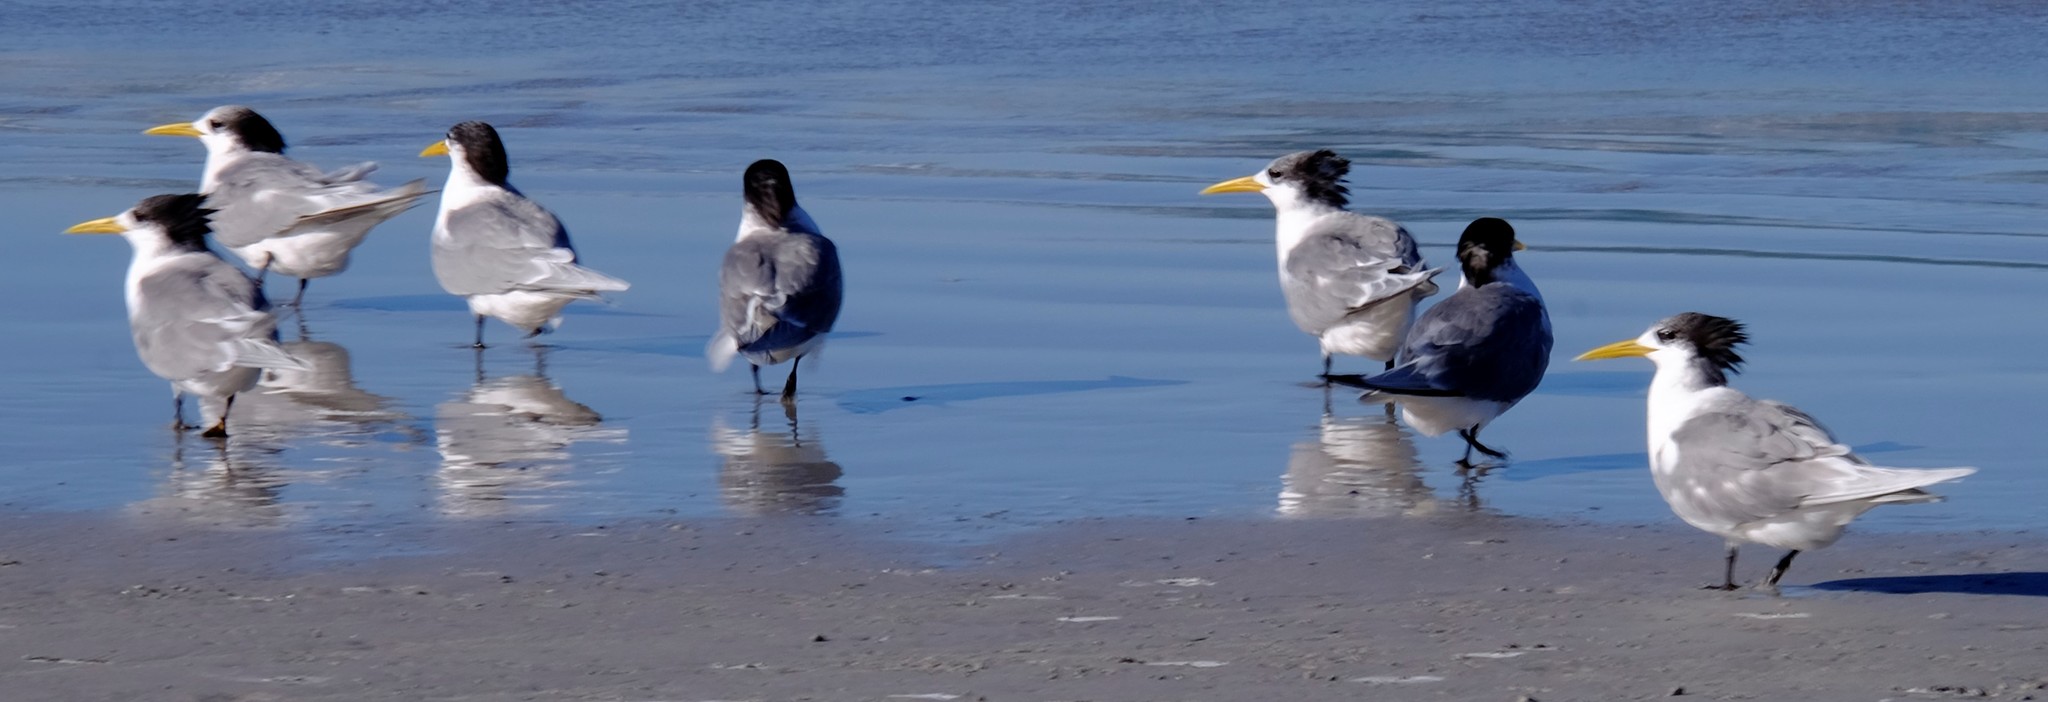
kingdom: Animalia
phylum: Chordata
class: Aves
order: Charadriiformes
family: Laridae
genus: Thalasseus
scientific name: Thalasseus bergii
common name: Greater crested tern
